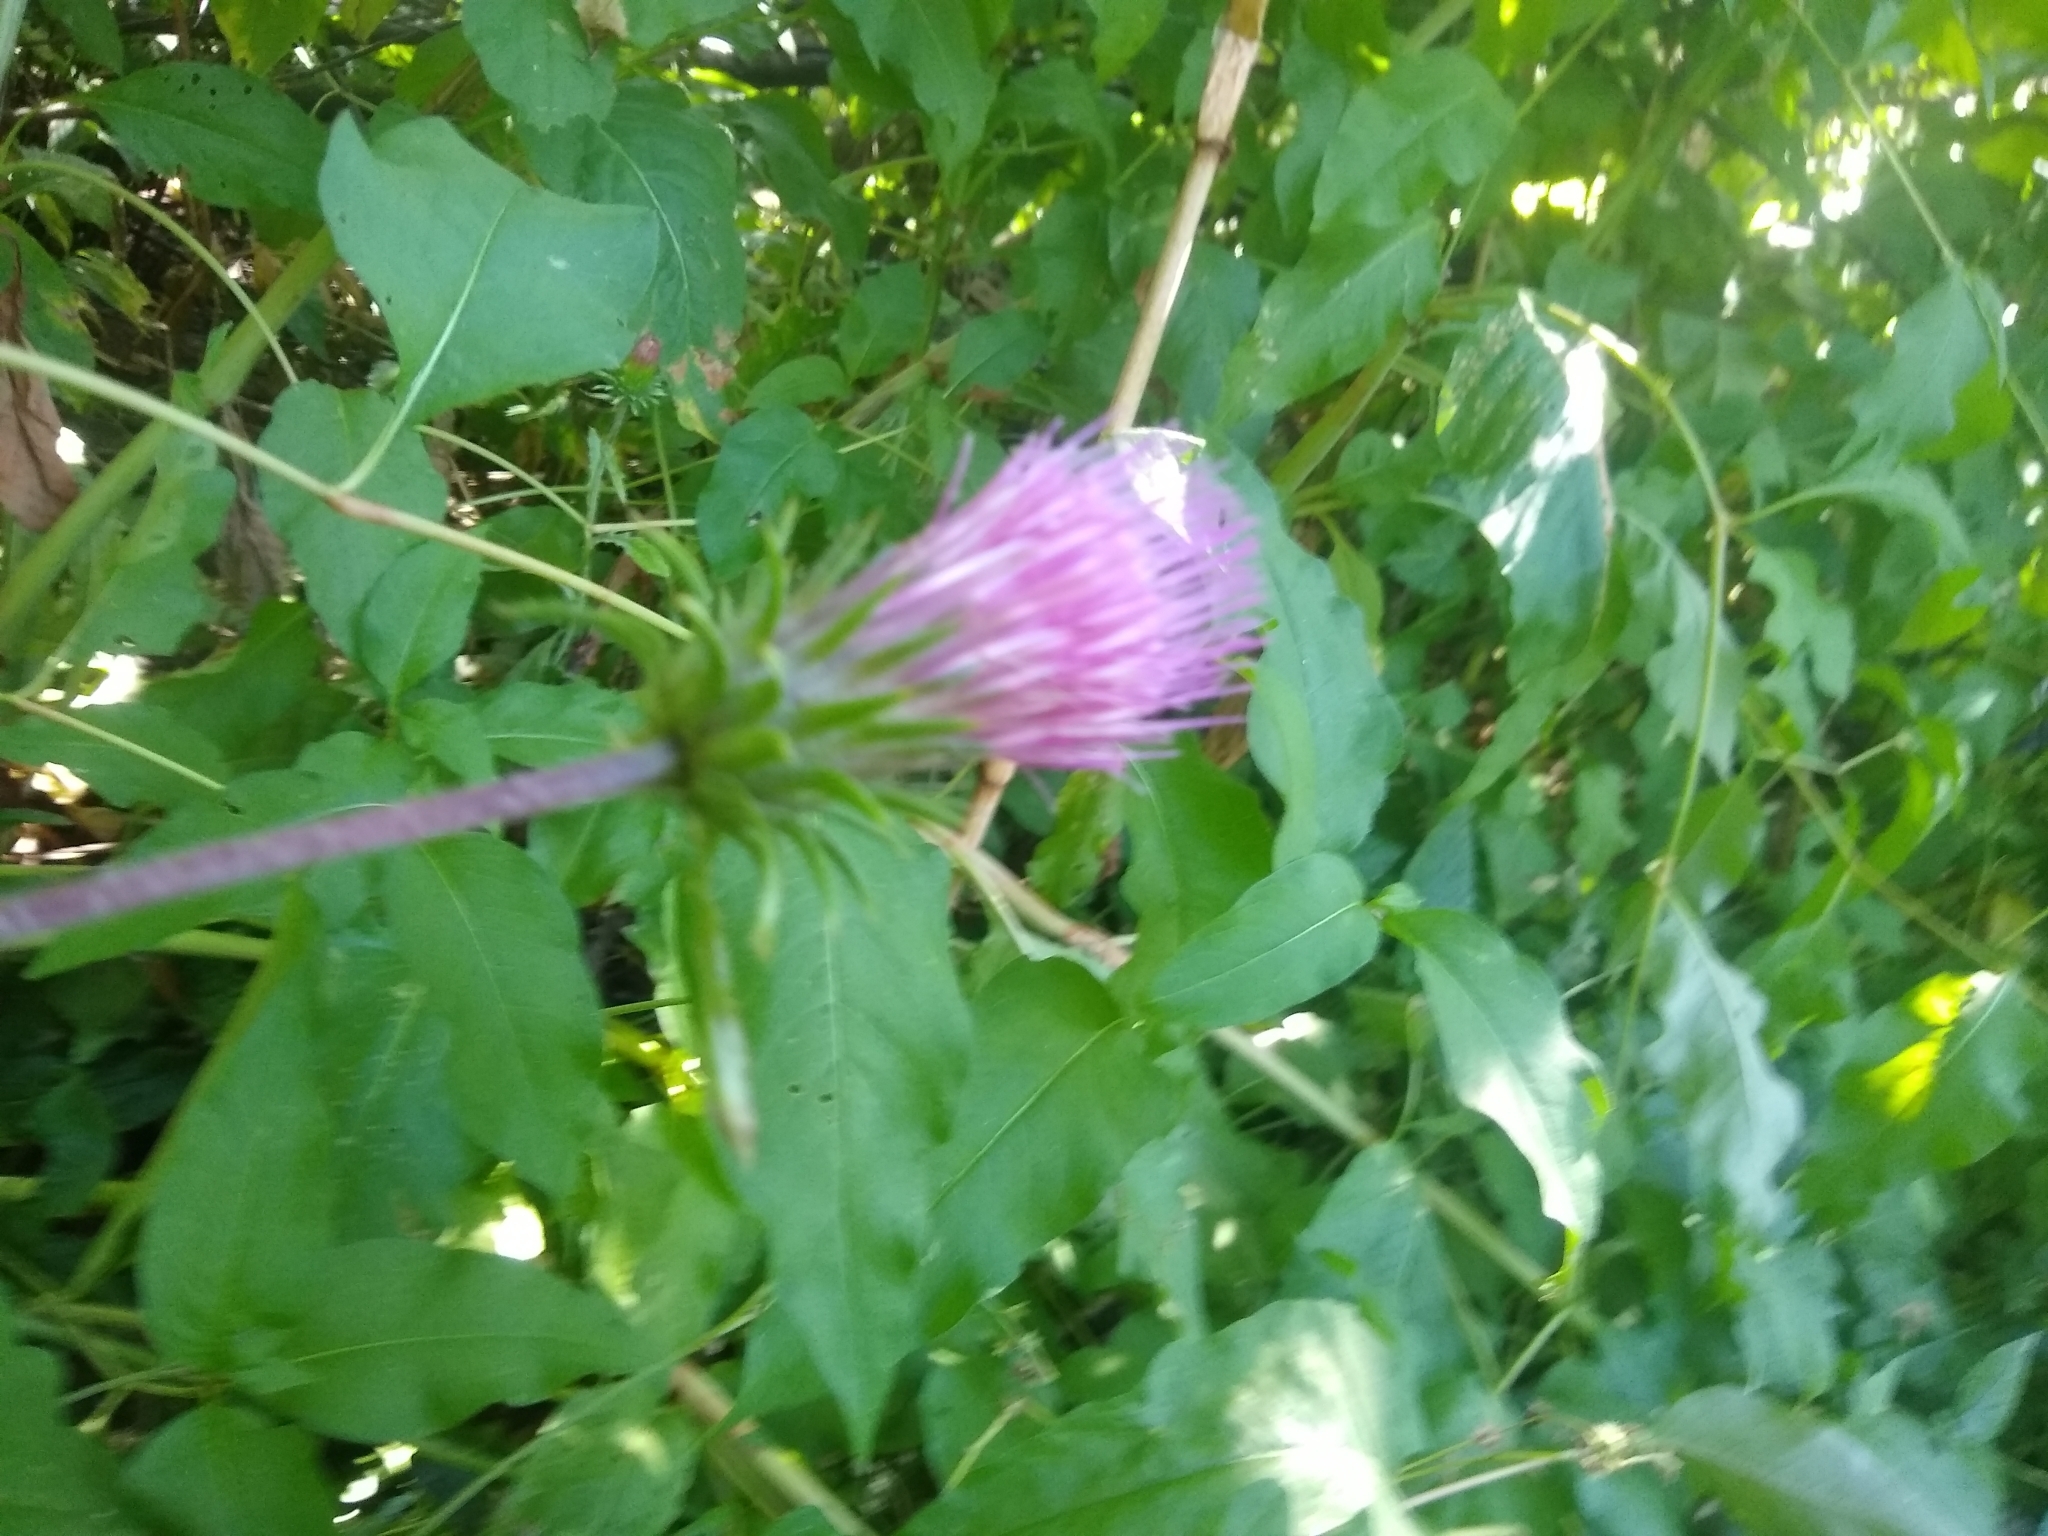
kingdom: Plantae
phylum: Tracheophyta
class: Magnoliopsida
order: Asterales
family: Asteraceae
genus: Cirsium
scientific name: Cirsium andersonii
